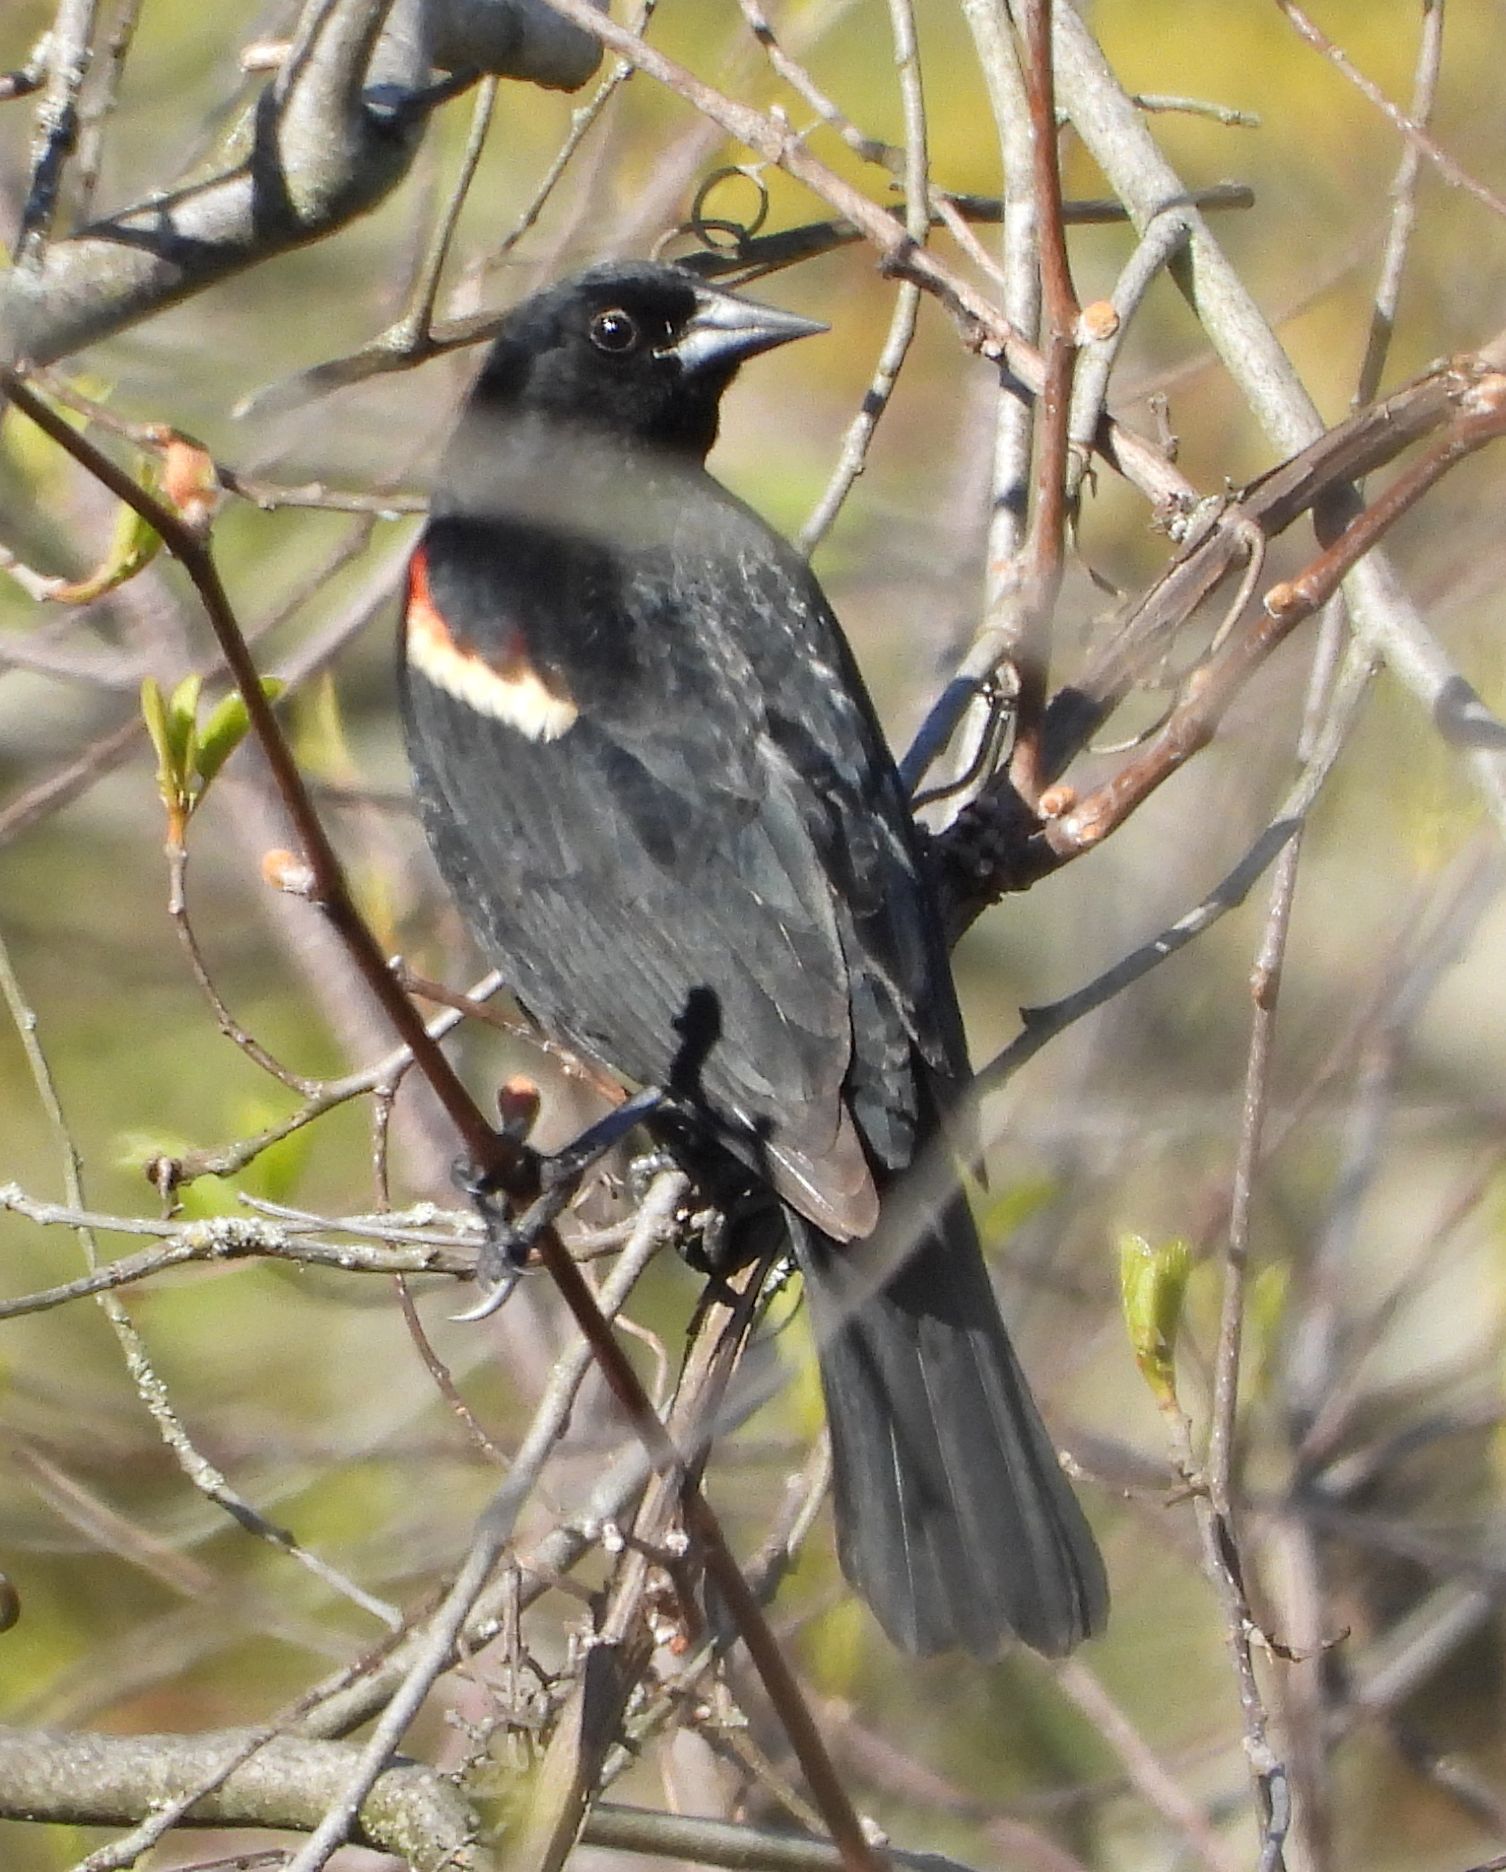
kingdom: Animalia
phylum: Chordata
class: Aves
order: Passeriformes
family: Icteridae
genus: Agelaius
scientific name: Agelaius phoeniceus
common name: Red-winged blackbird
